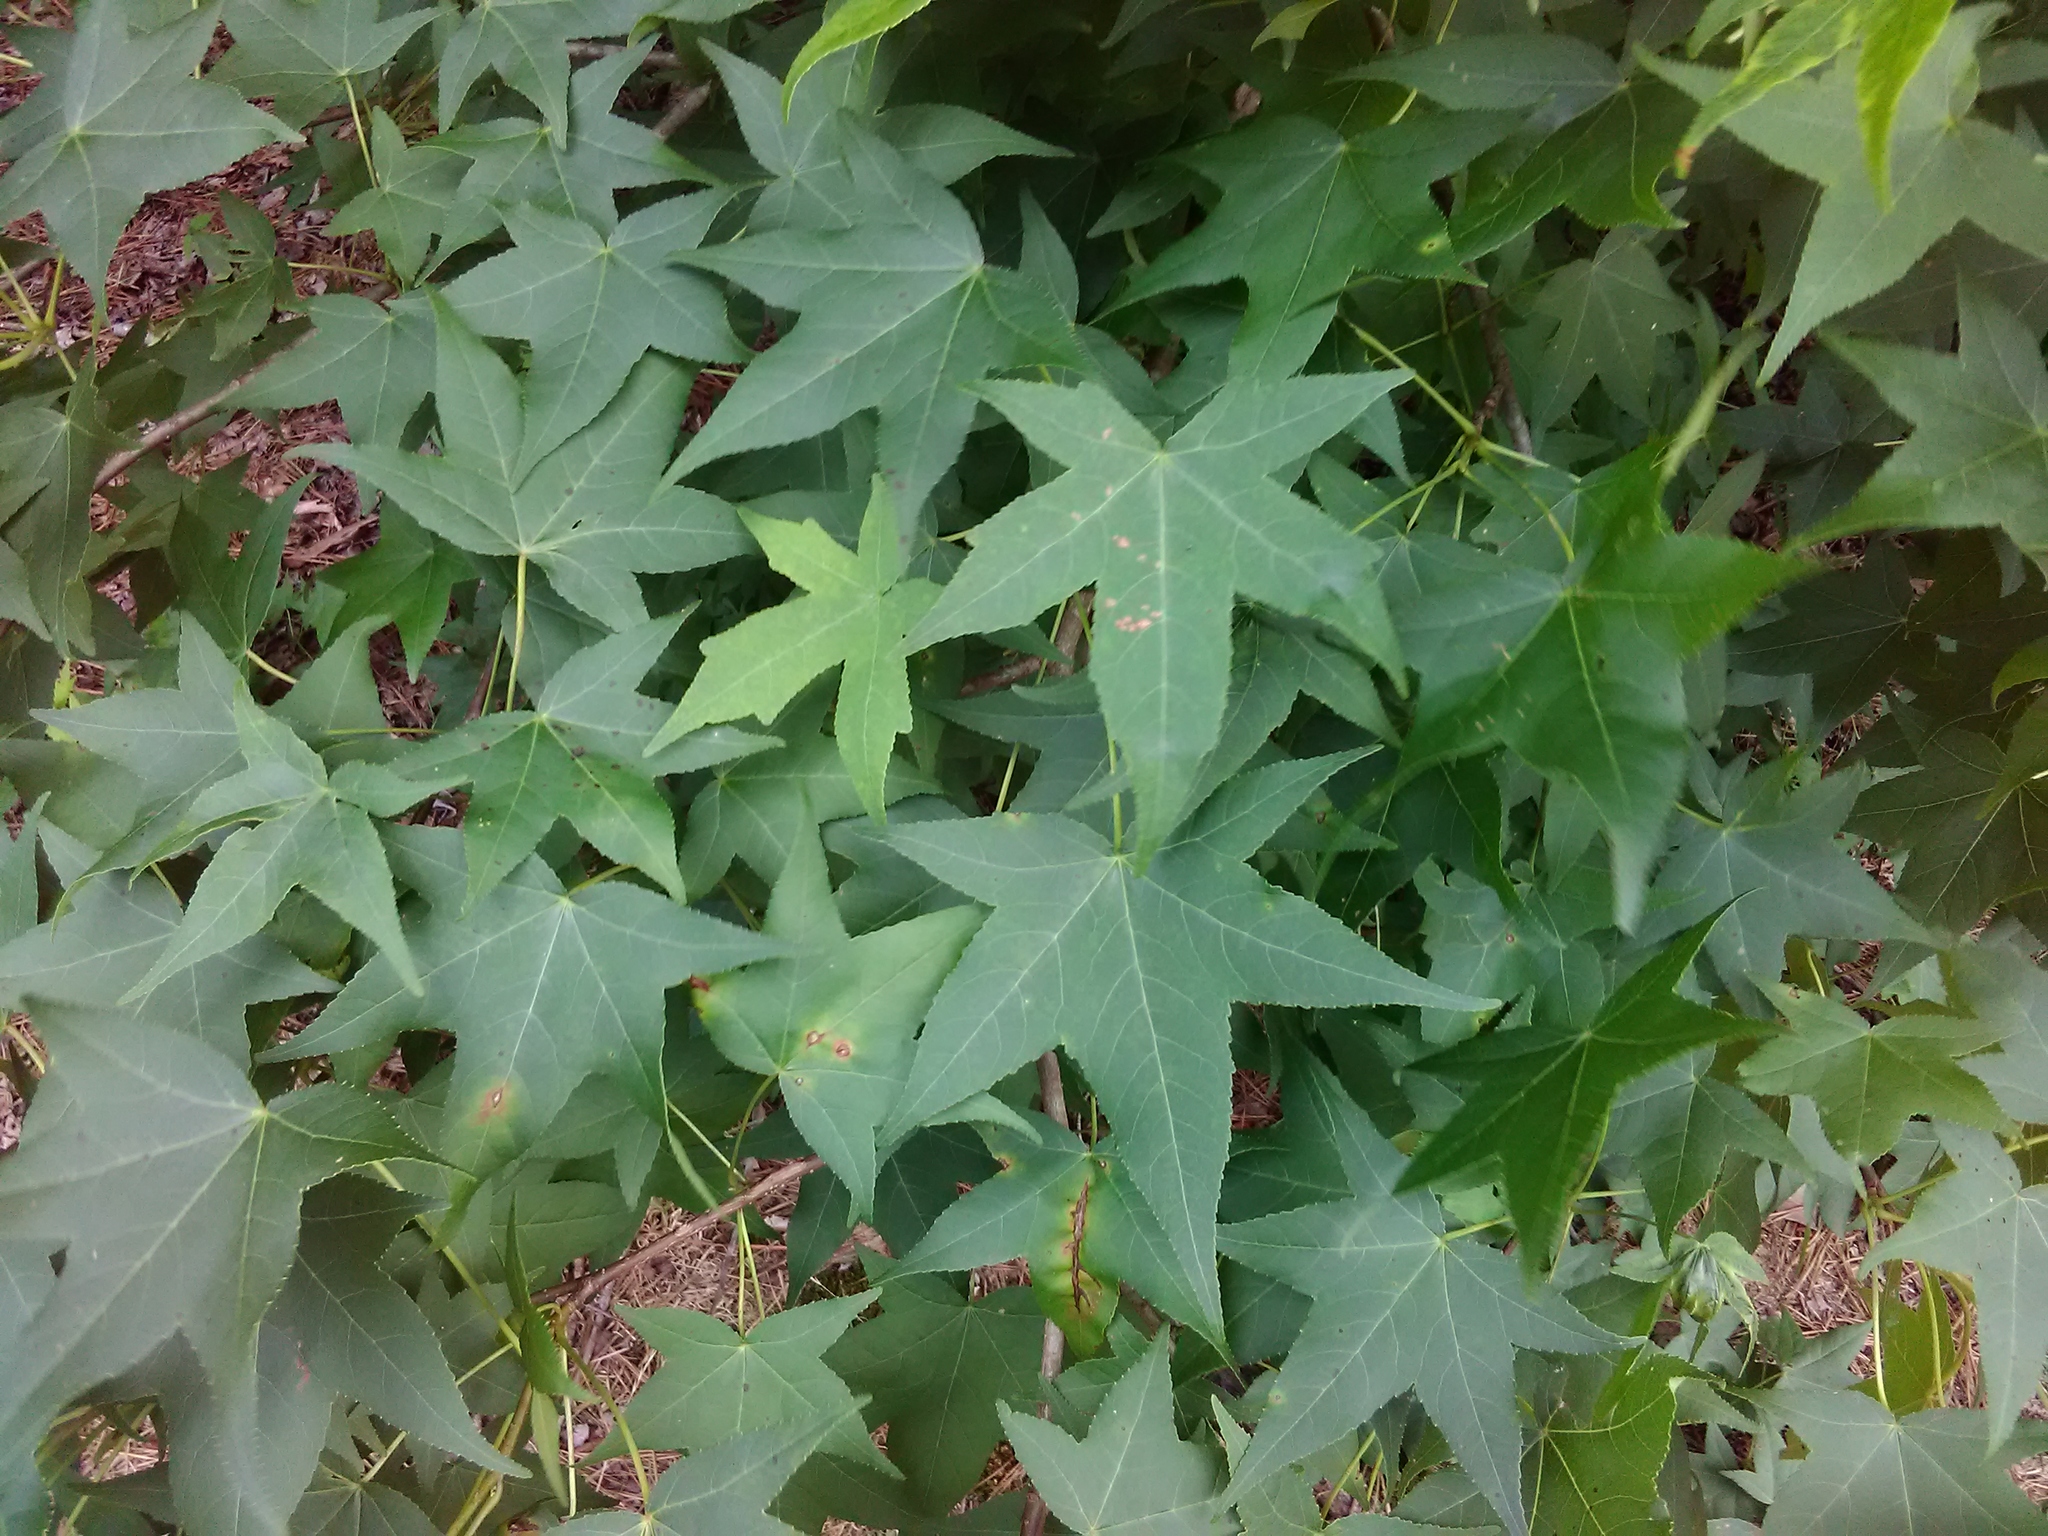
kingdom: Plantae
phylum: Tracheophyta
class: Magnoliopsida
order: Saxifragales
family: Altingiaceae
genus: Liquidambar
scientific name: Liquidambar styraciflua
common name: Sweet gum
